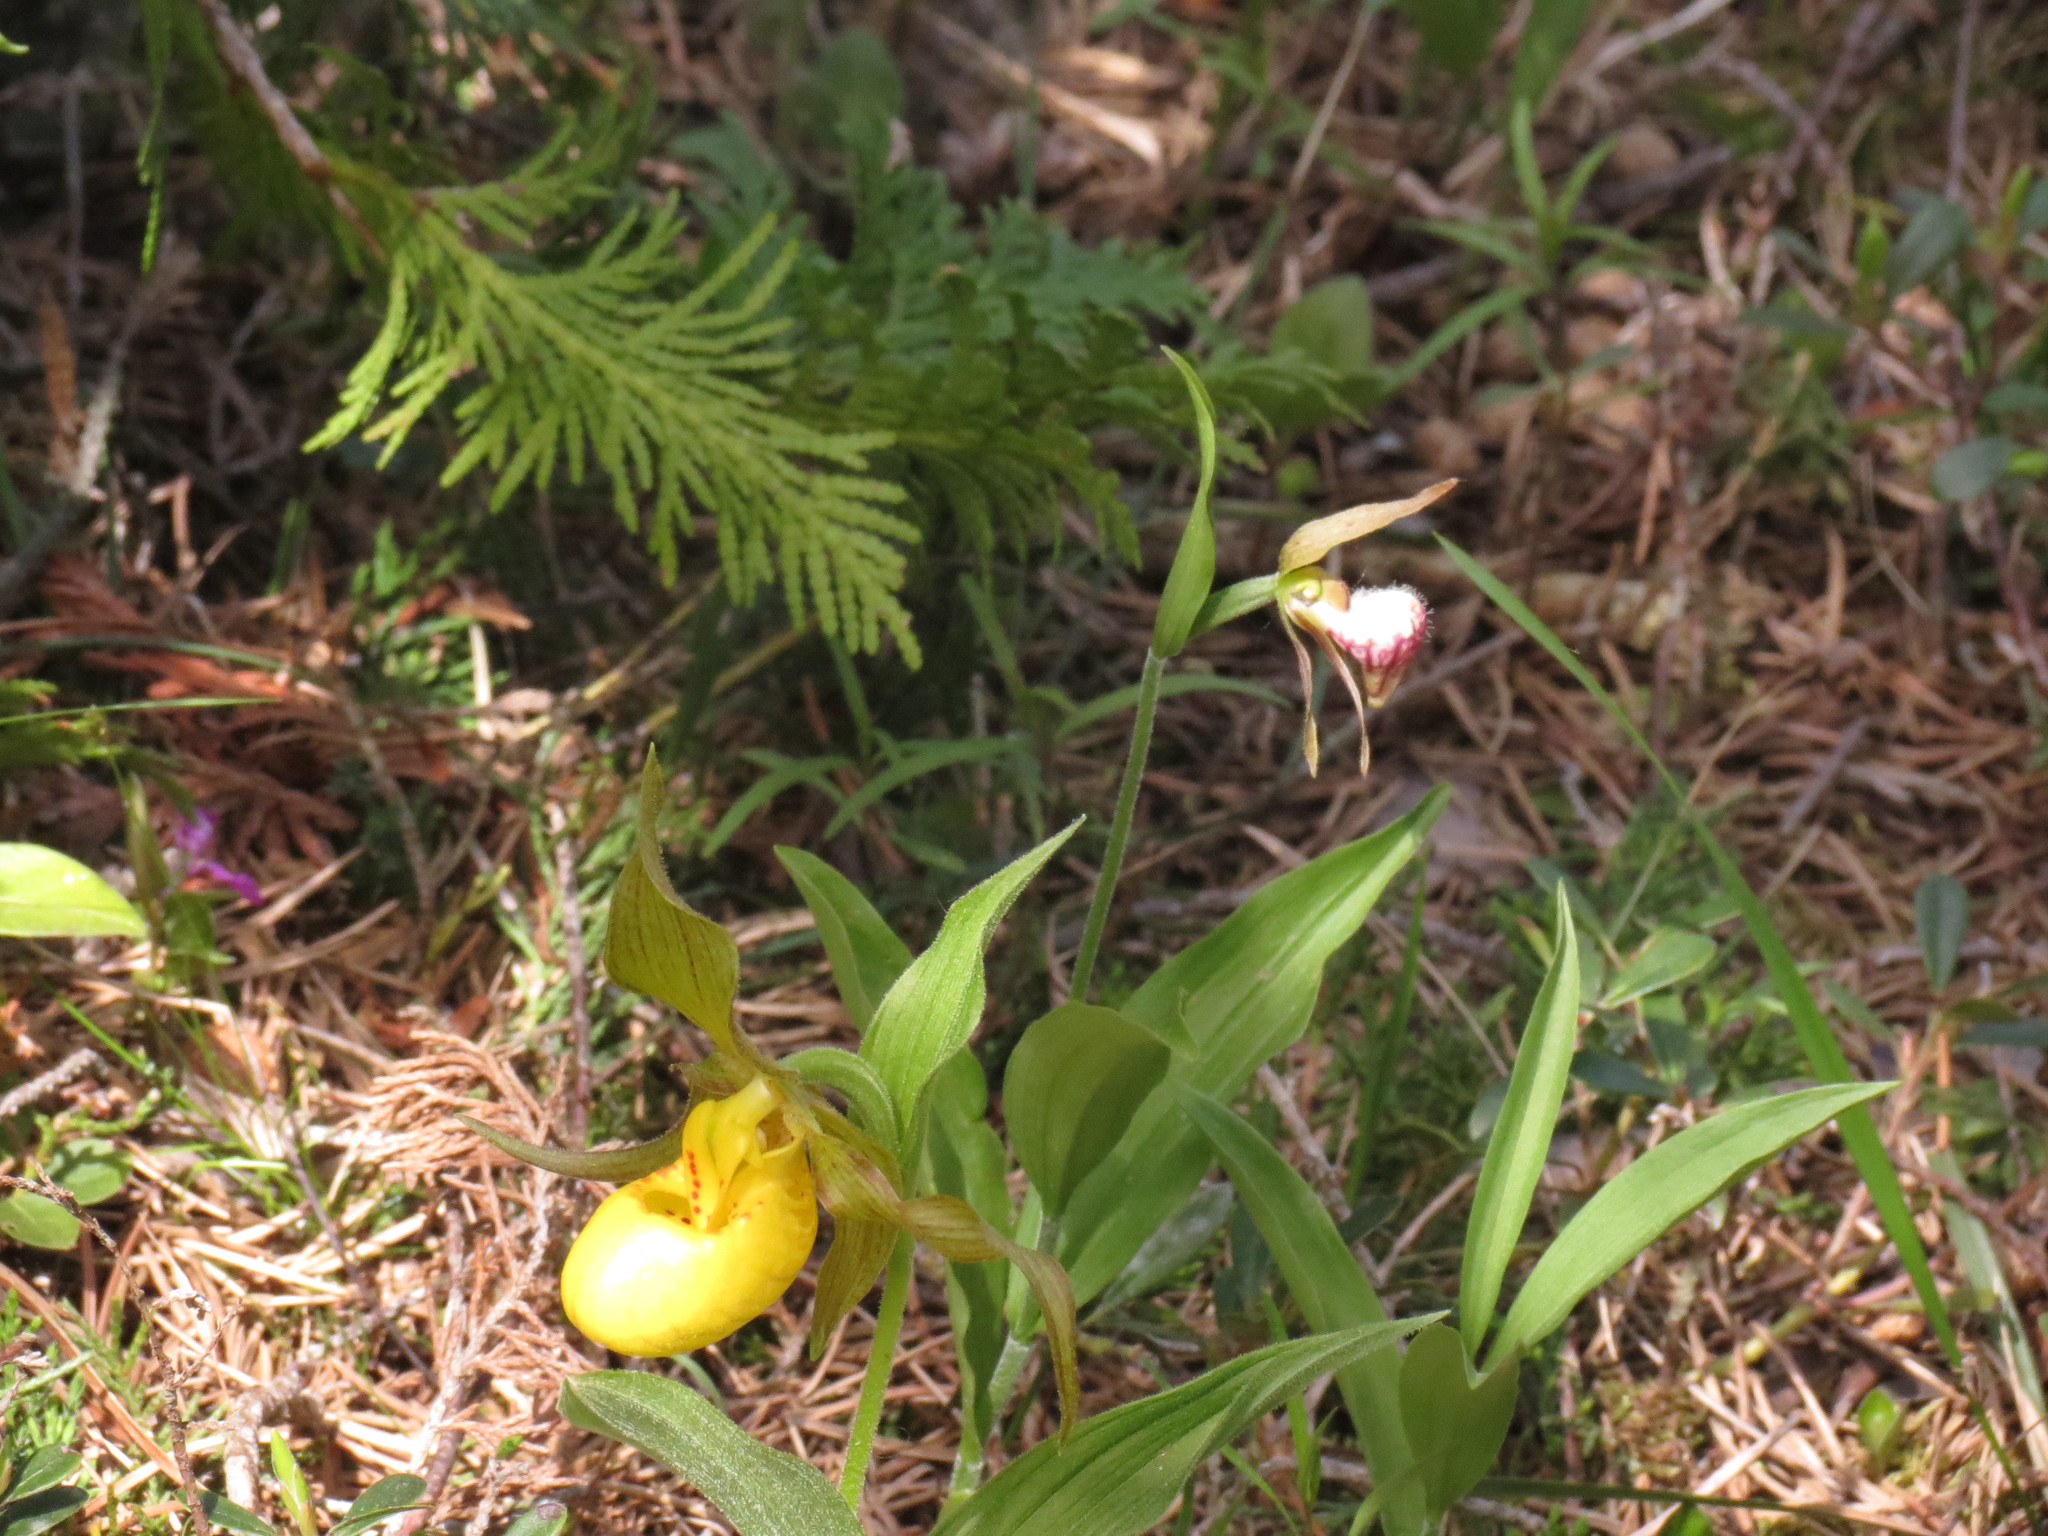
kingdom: Plantae
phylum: Tracheophyta
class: Liliopsida
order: Asparagales
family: Orchidaceae
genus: Cypripedium
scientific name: Cypripedium arietinum
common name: Ram's-head
